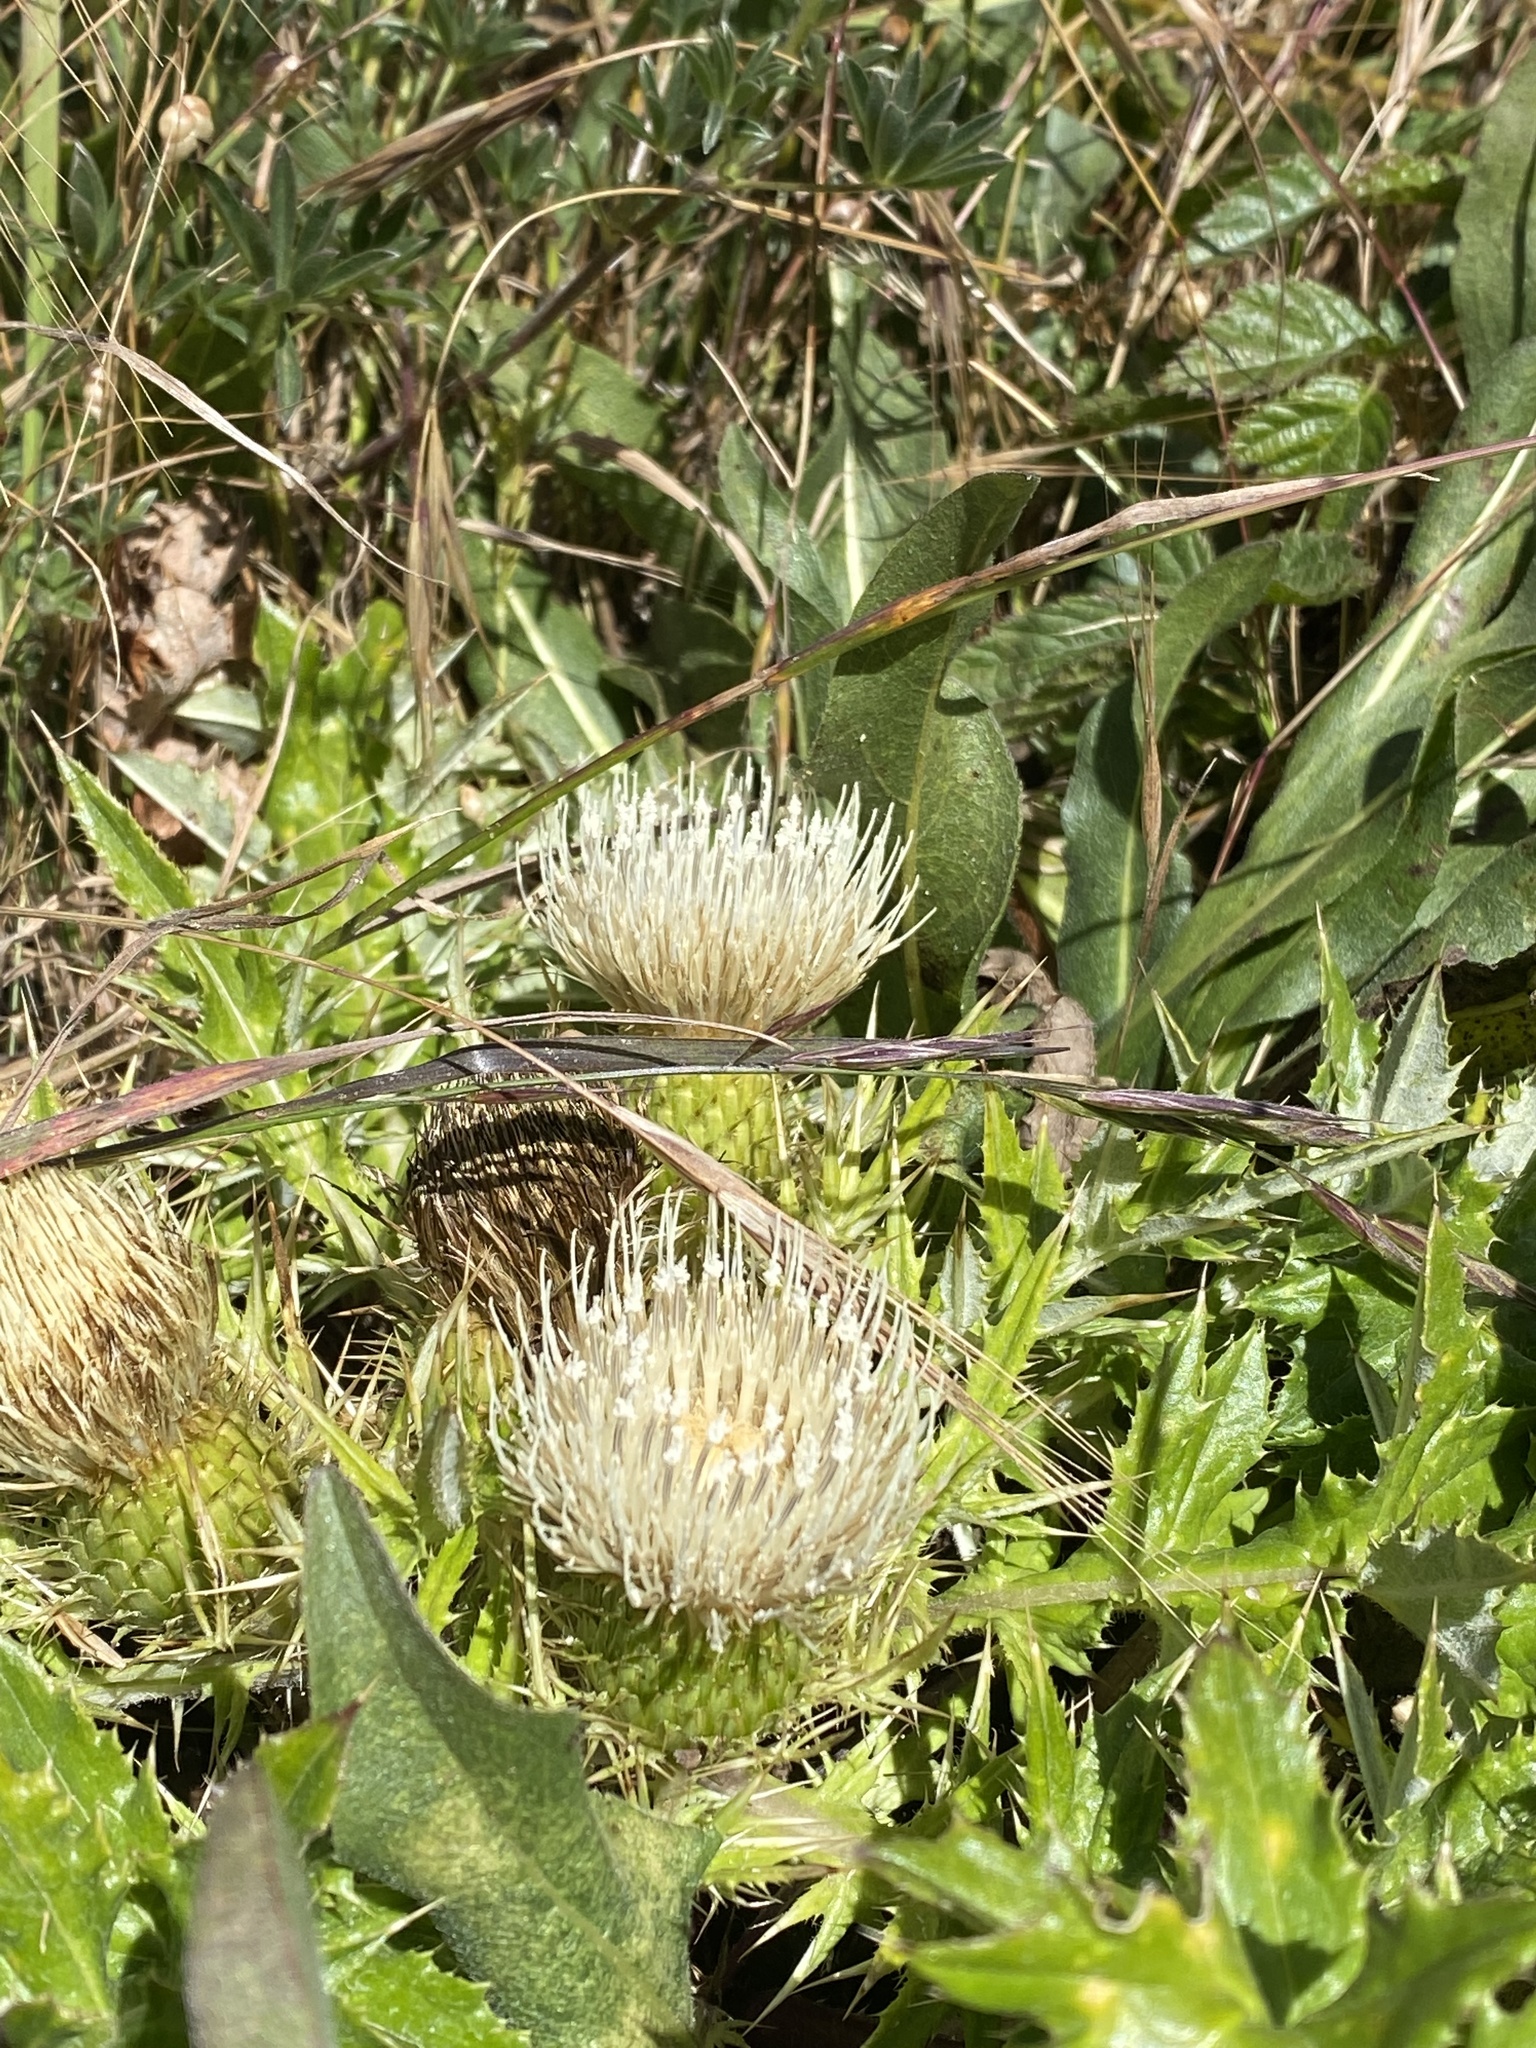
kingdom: Plantae
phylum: Tracheophyta
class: Magnoliopsida
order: Asterales
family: Asteraceae
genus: Cirsium
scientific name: Cirsium quercetorum
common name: Alameda county thistle
